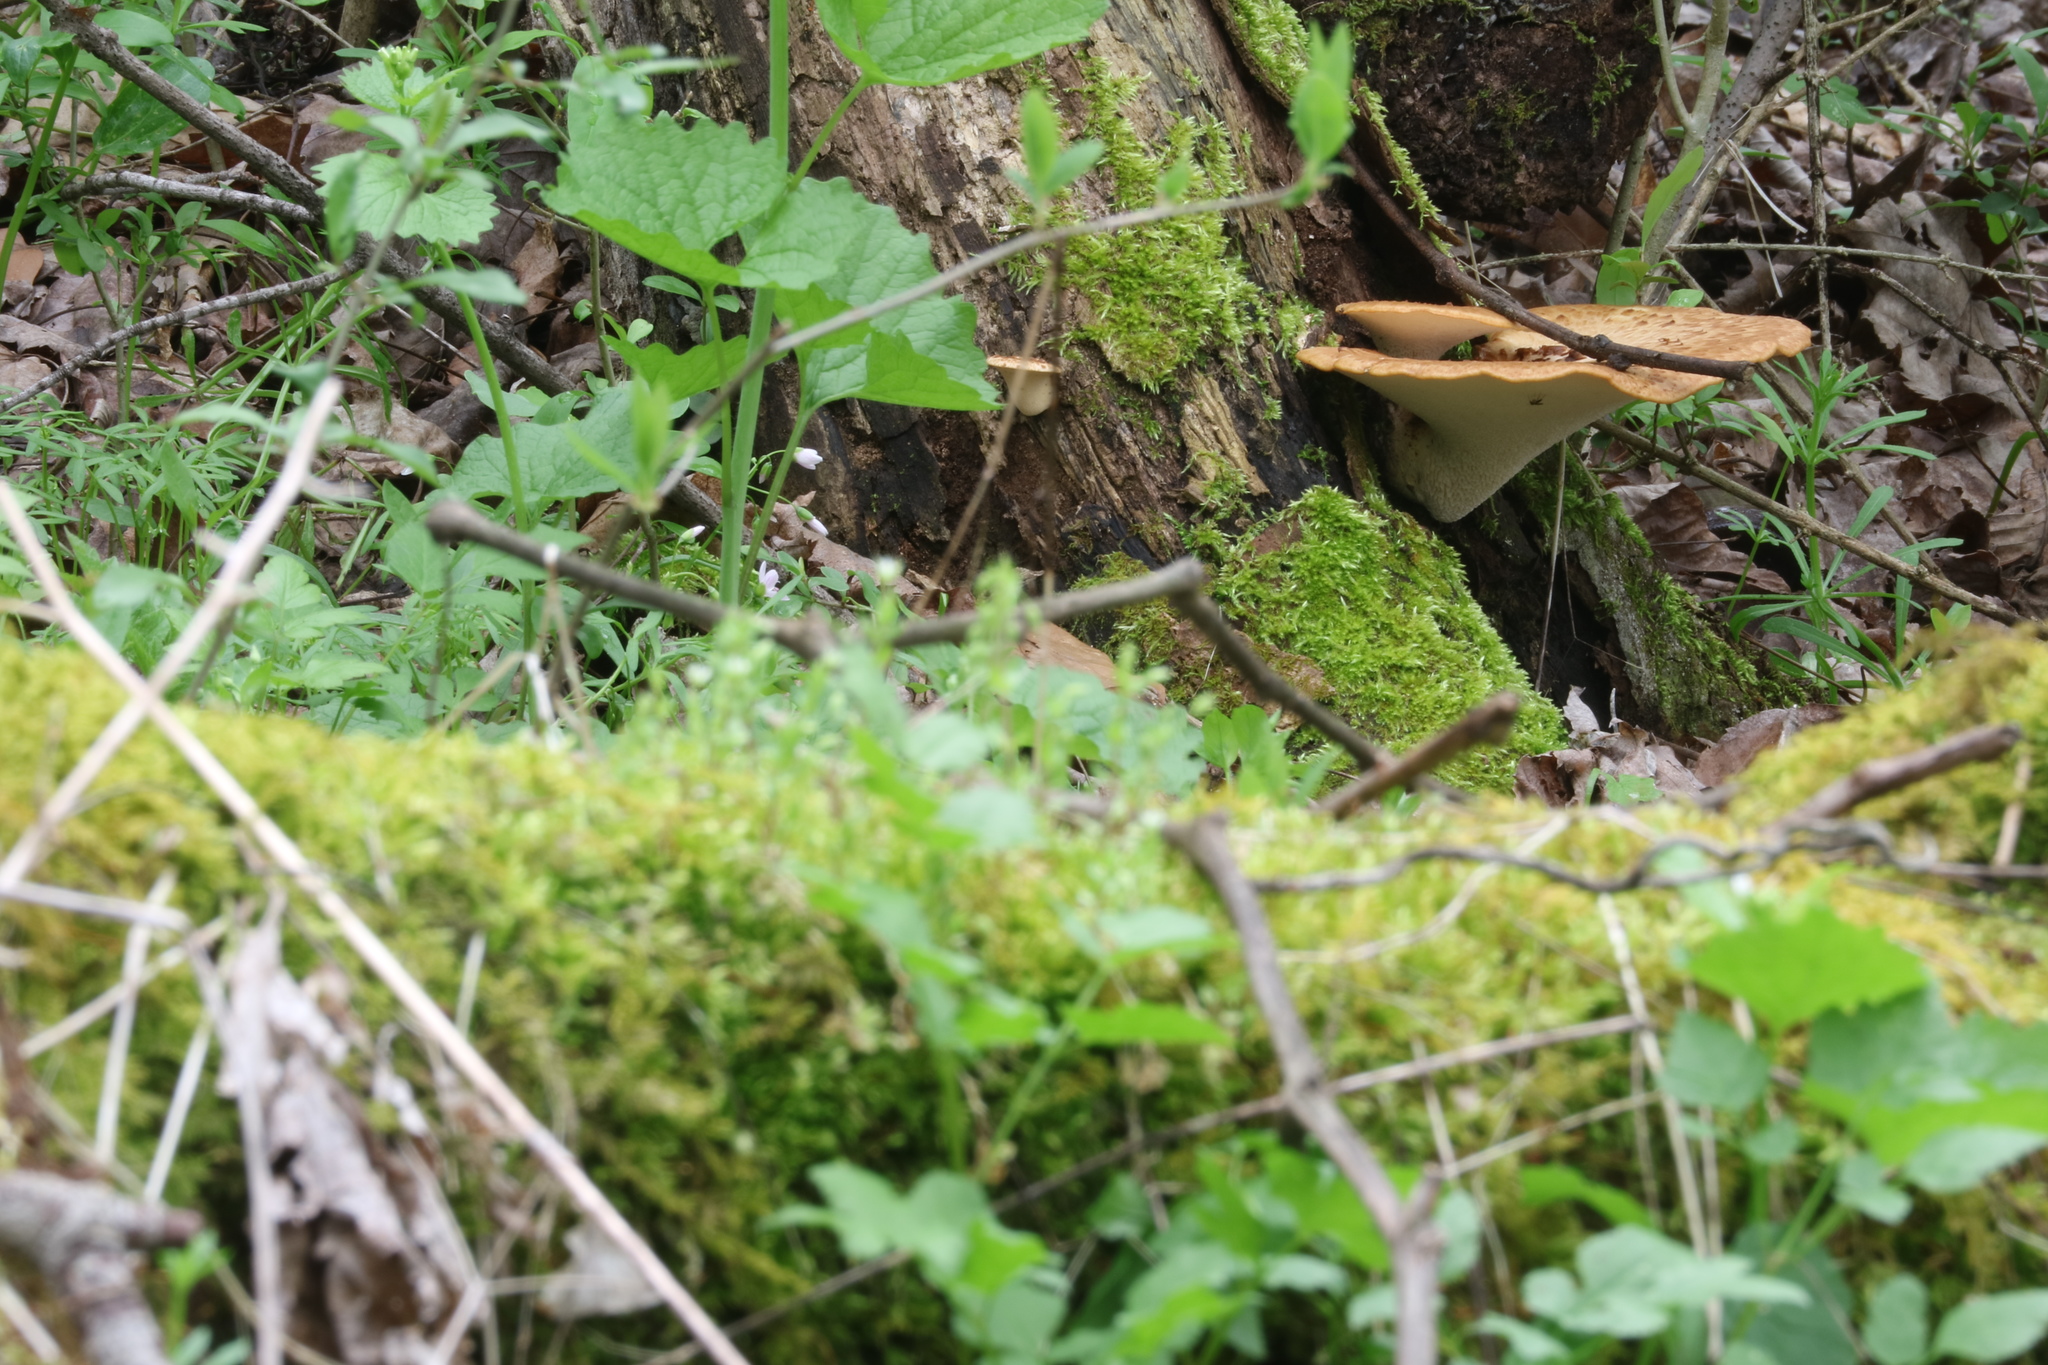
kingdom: Fungi
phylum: Basidiomycota
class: Agaricomycetes
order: Polyporales
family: Polyporaceae
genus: Cerioporus
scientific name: Cerioporus squamosus
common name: Dryad's saddle
